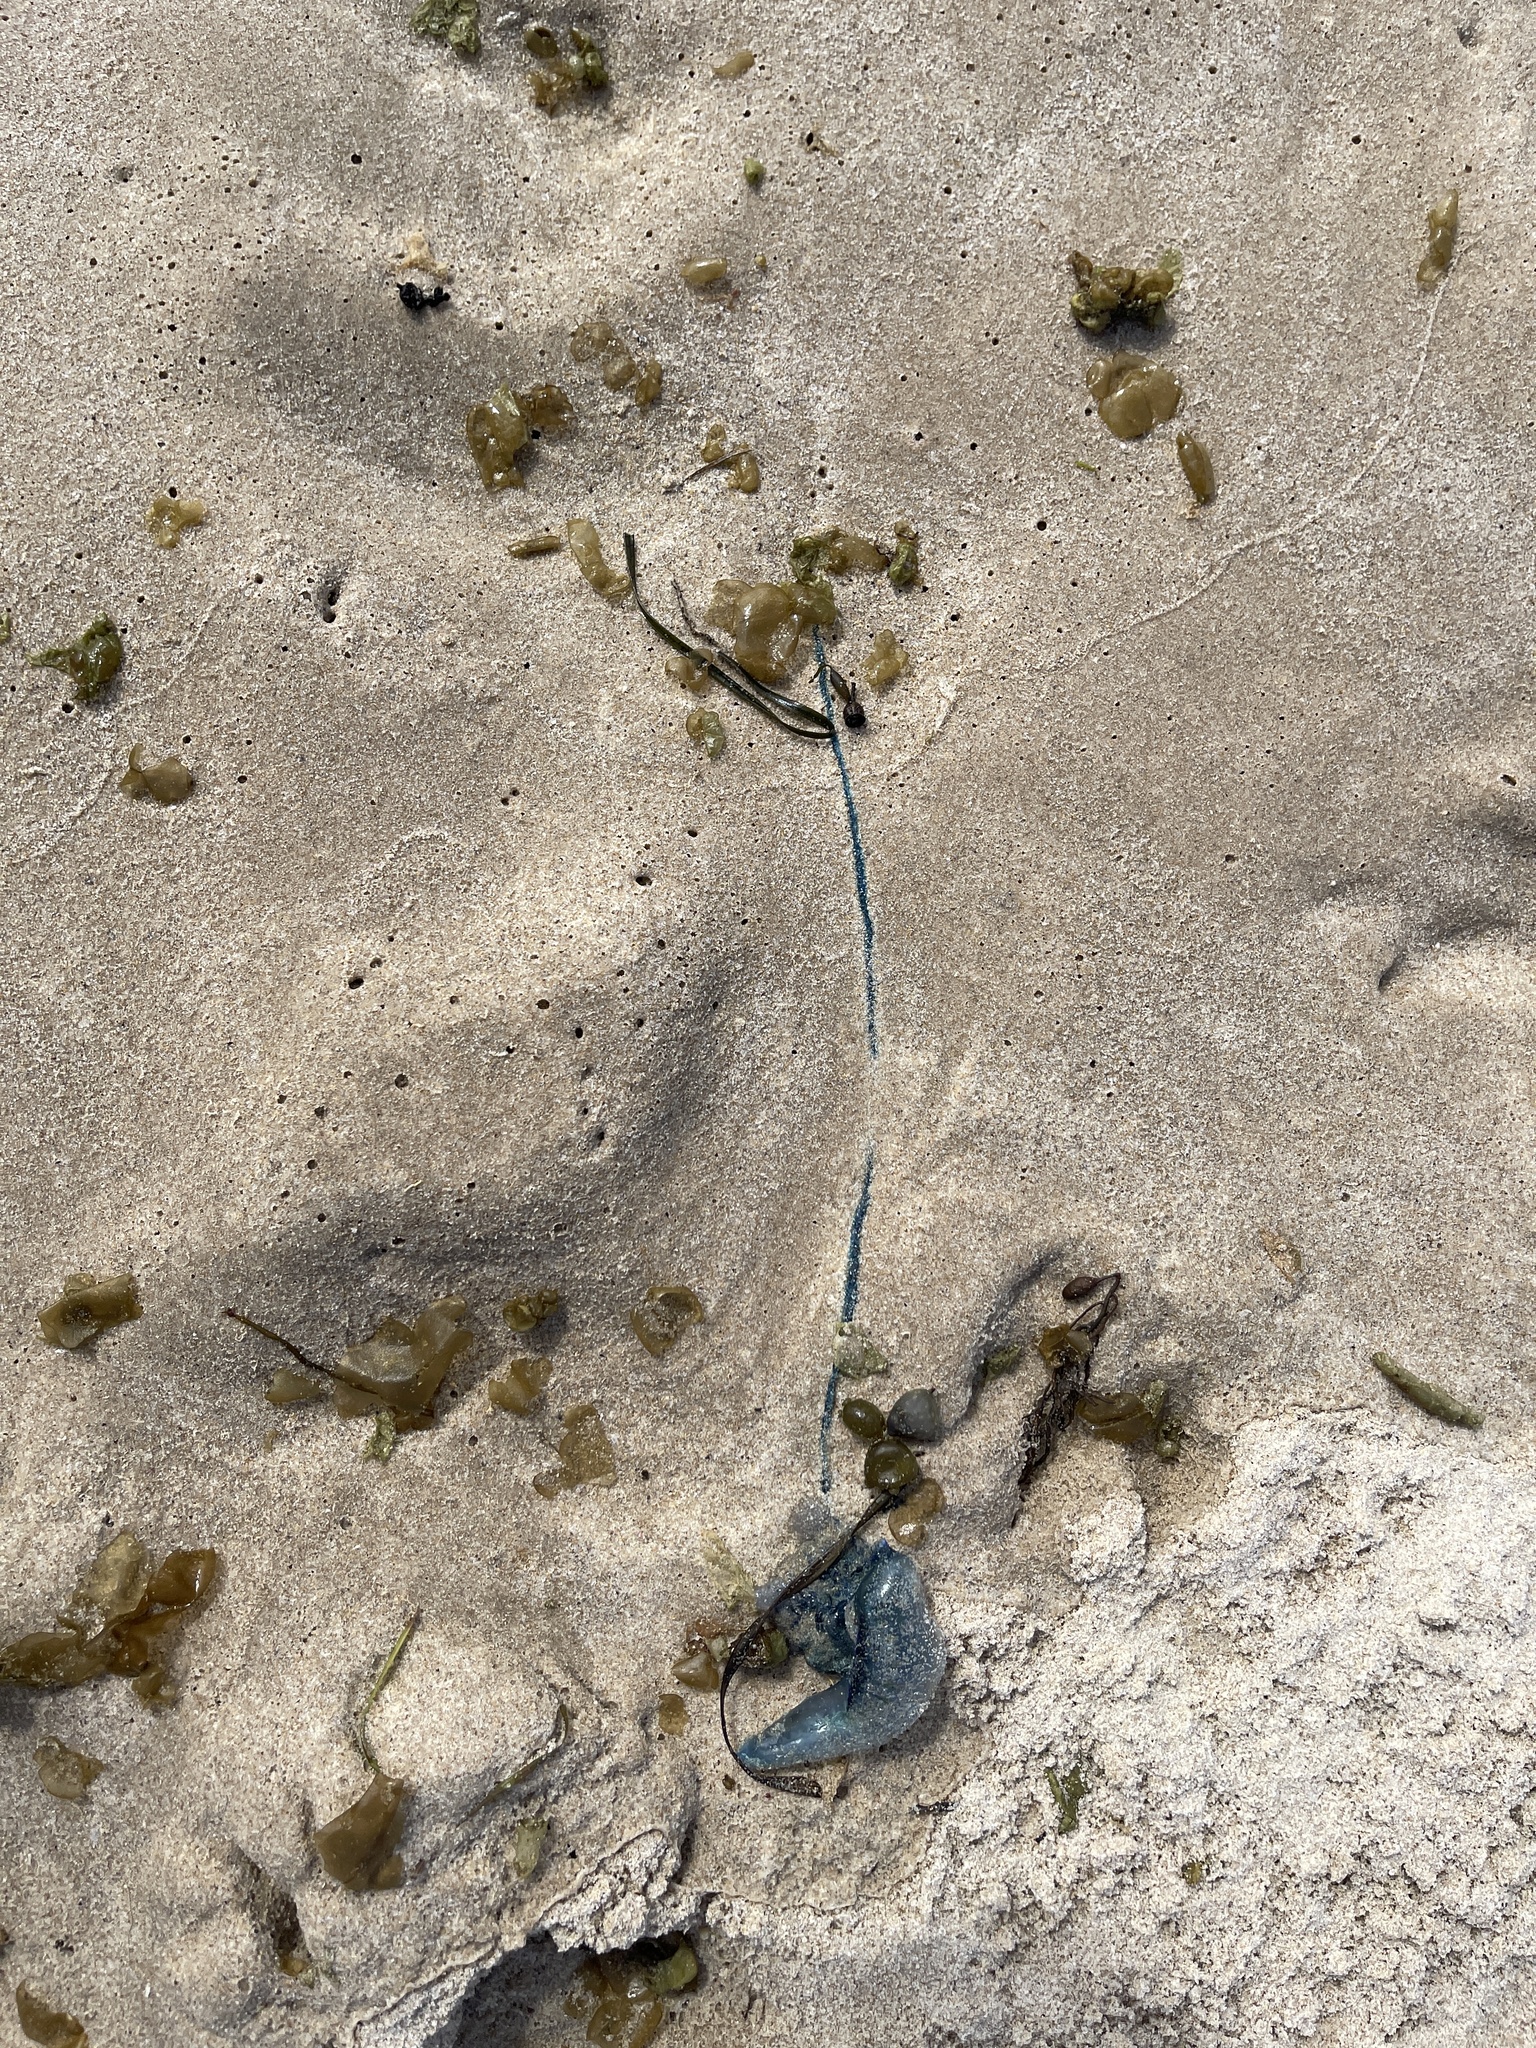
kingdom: Animalia
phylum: Cnidaria
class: Hydrozoa
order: Siphonophorae
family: Physaliidae
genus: Physalia
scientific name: Physalia physalis
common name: Portuguese man-of-war
